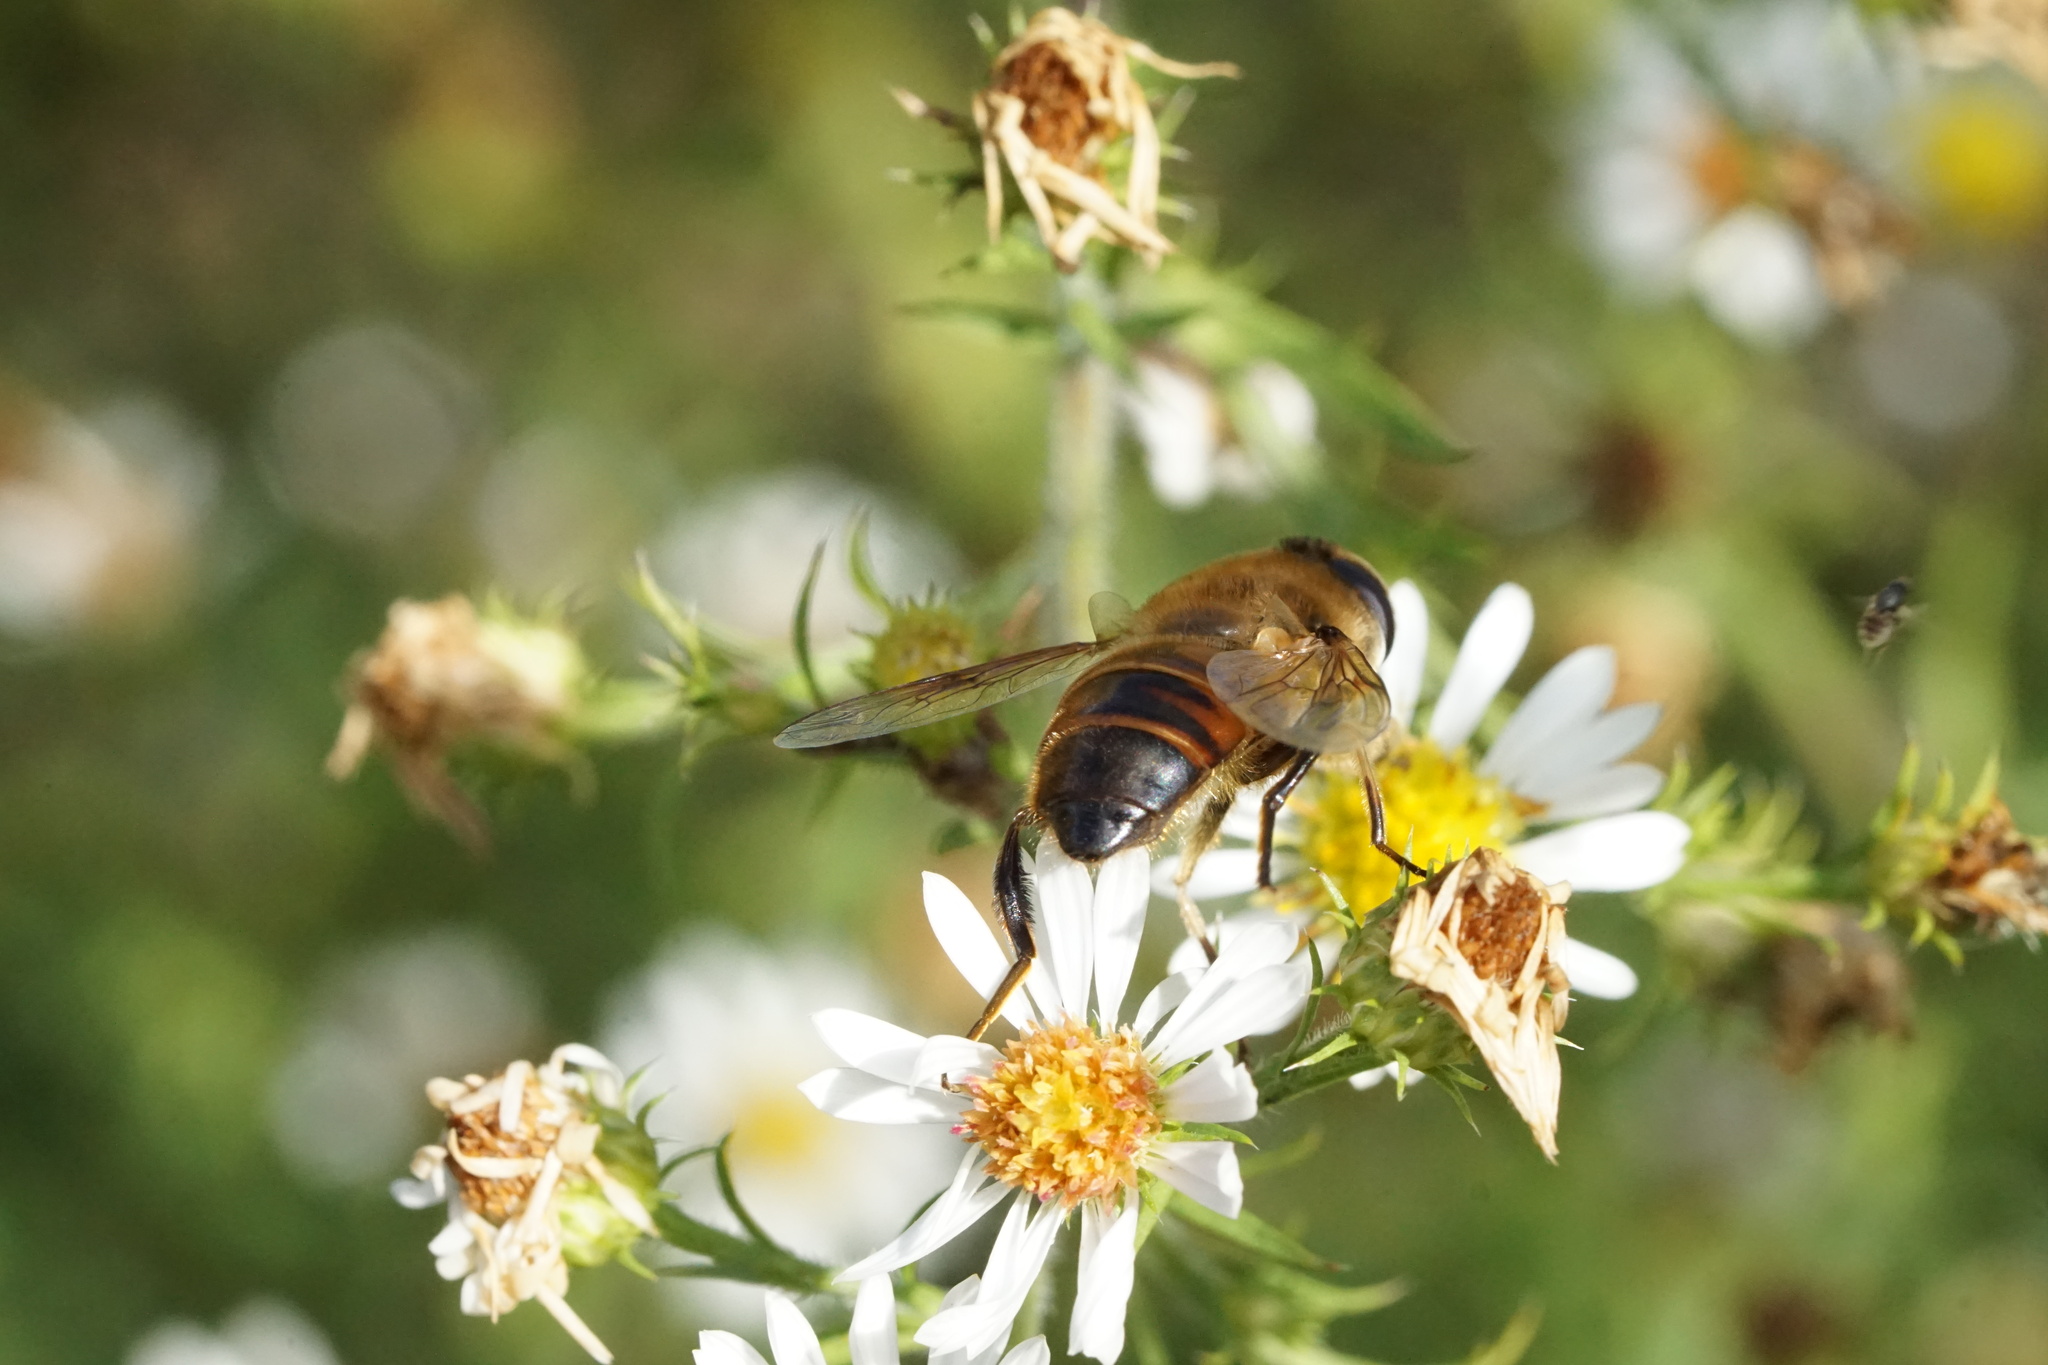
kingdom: Animalia
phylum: Arthropoda
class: Insecta
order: Diptera
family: Syrphidae
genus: Eristalis
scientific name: Eristalis tenax
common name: Drone fly
